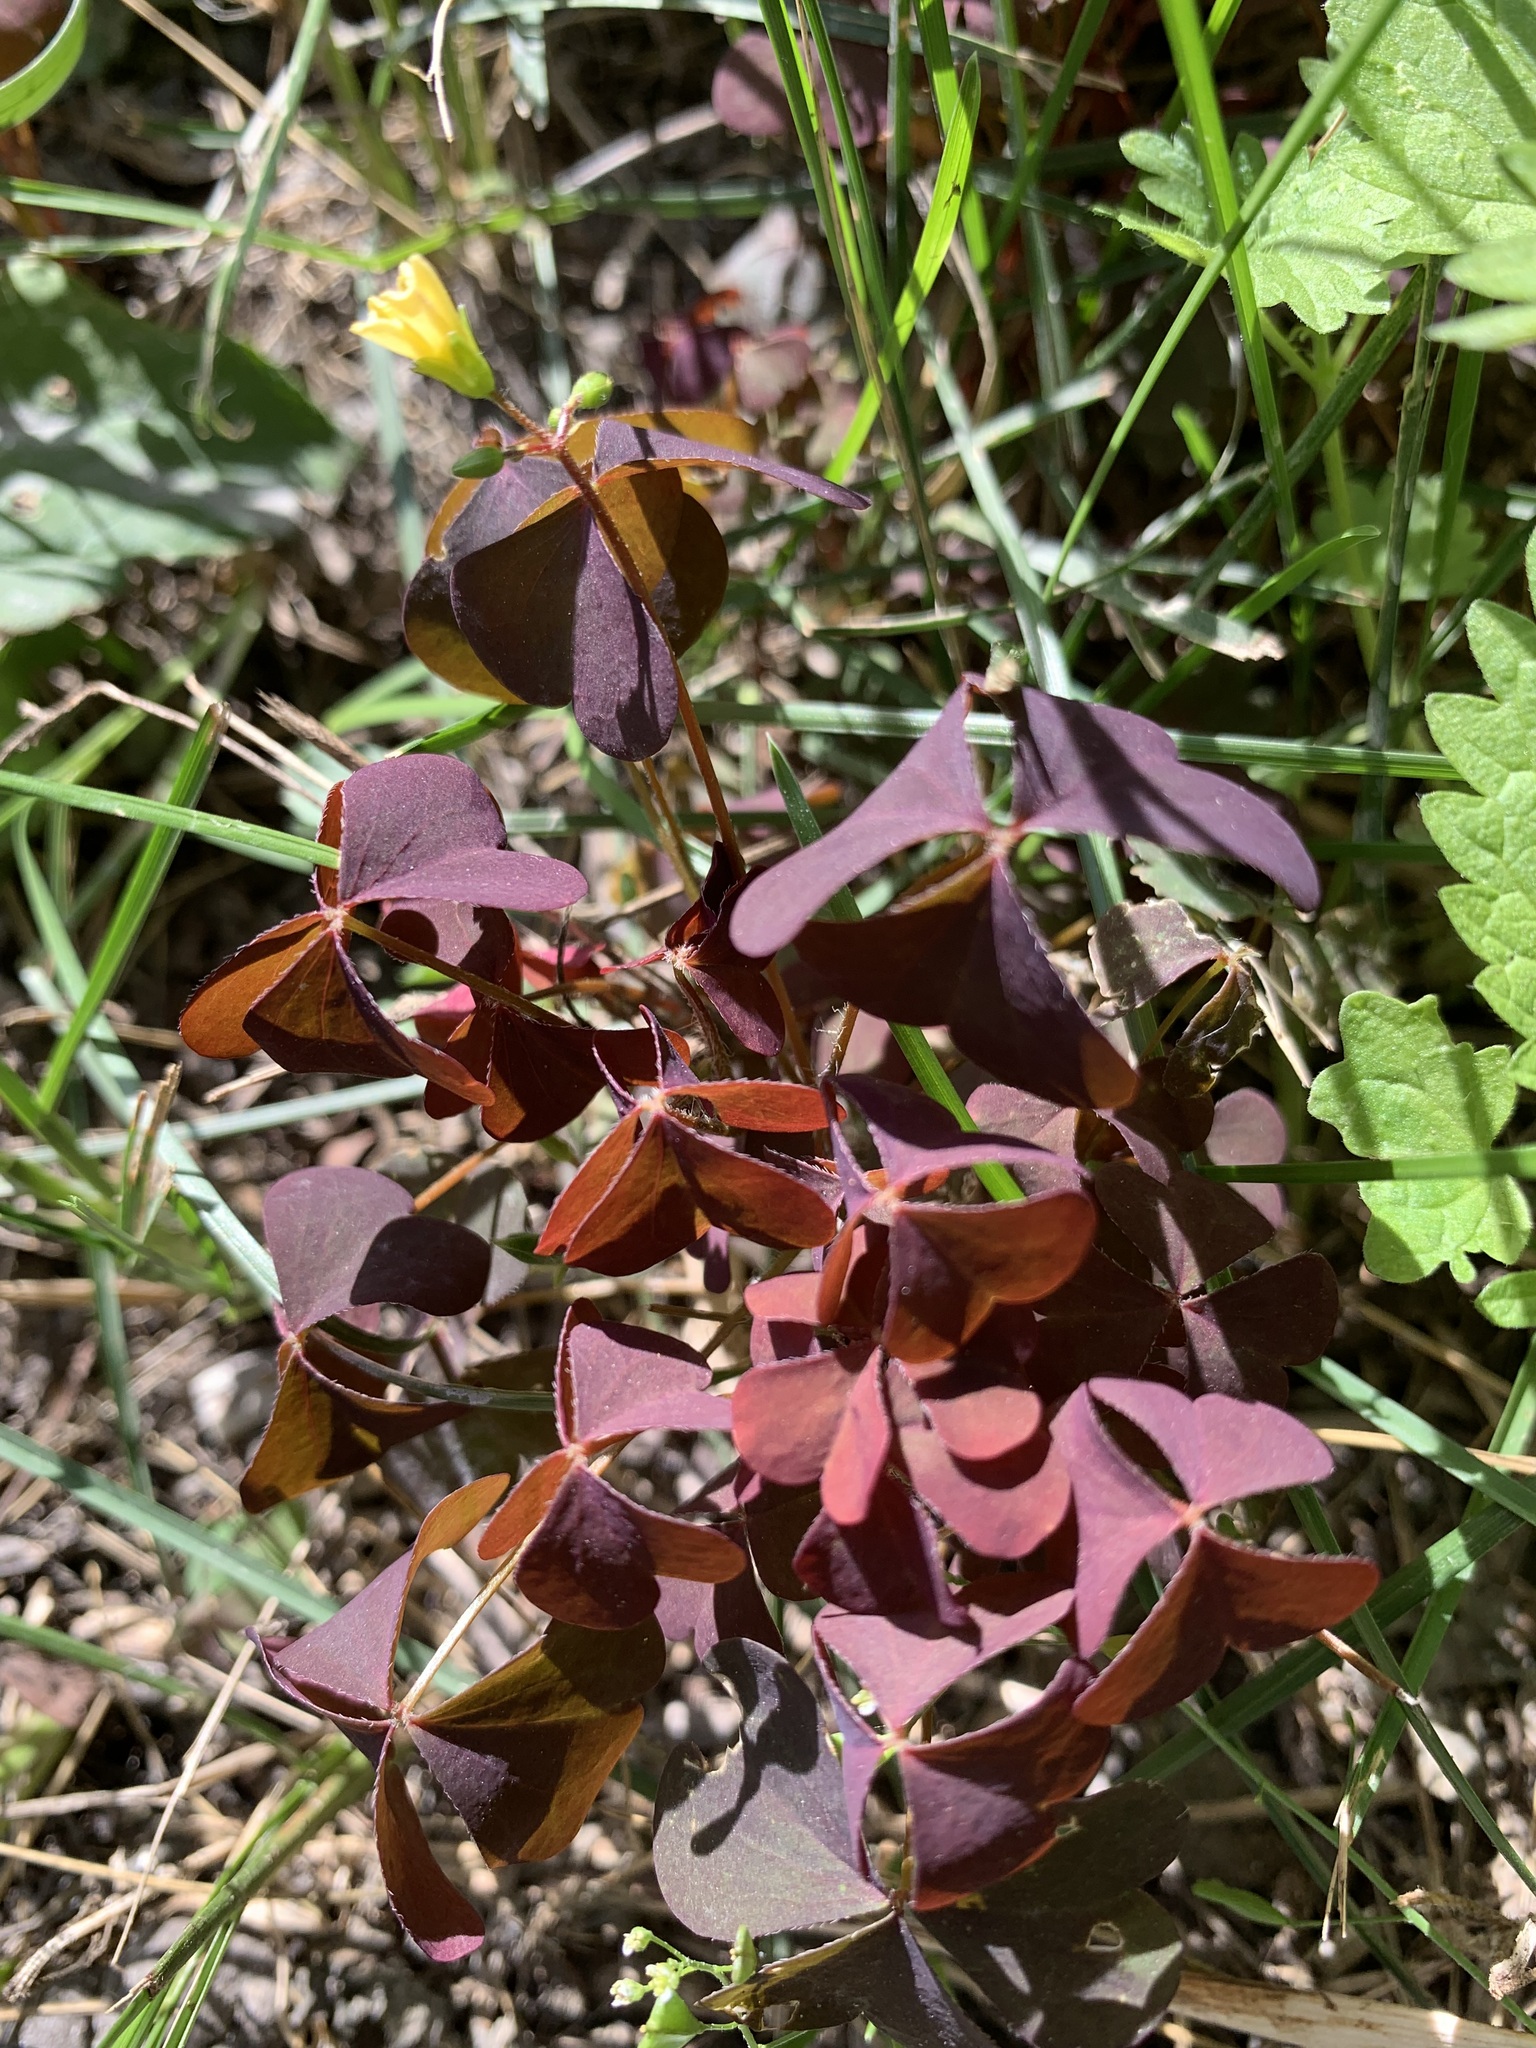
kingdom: Plantae
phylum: Tracheophyta
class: Magnoliopsida
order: Oxalidales
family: Oxalidaceae
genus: Oxalis
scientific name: Oxalis stricta
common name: Upright yellow-sorrel
